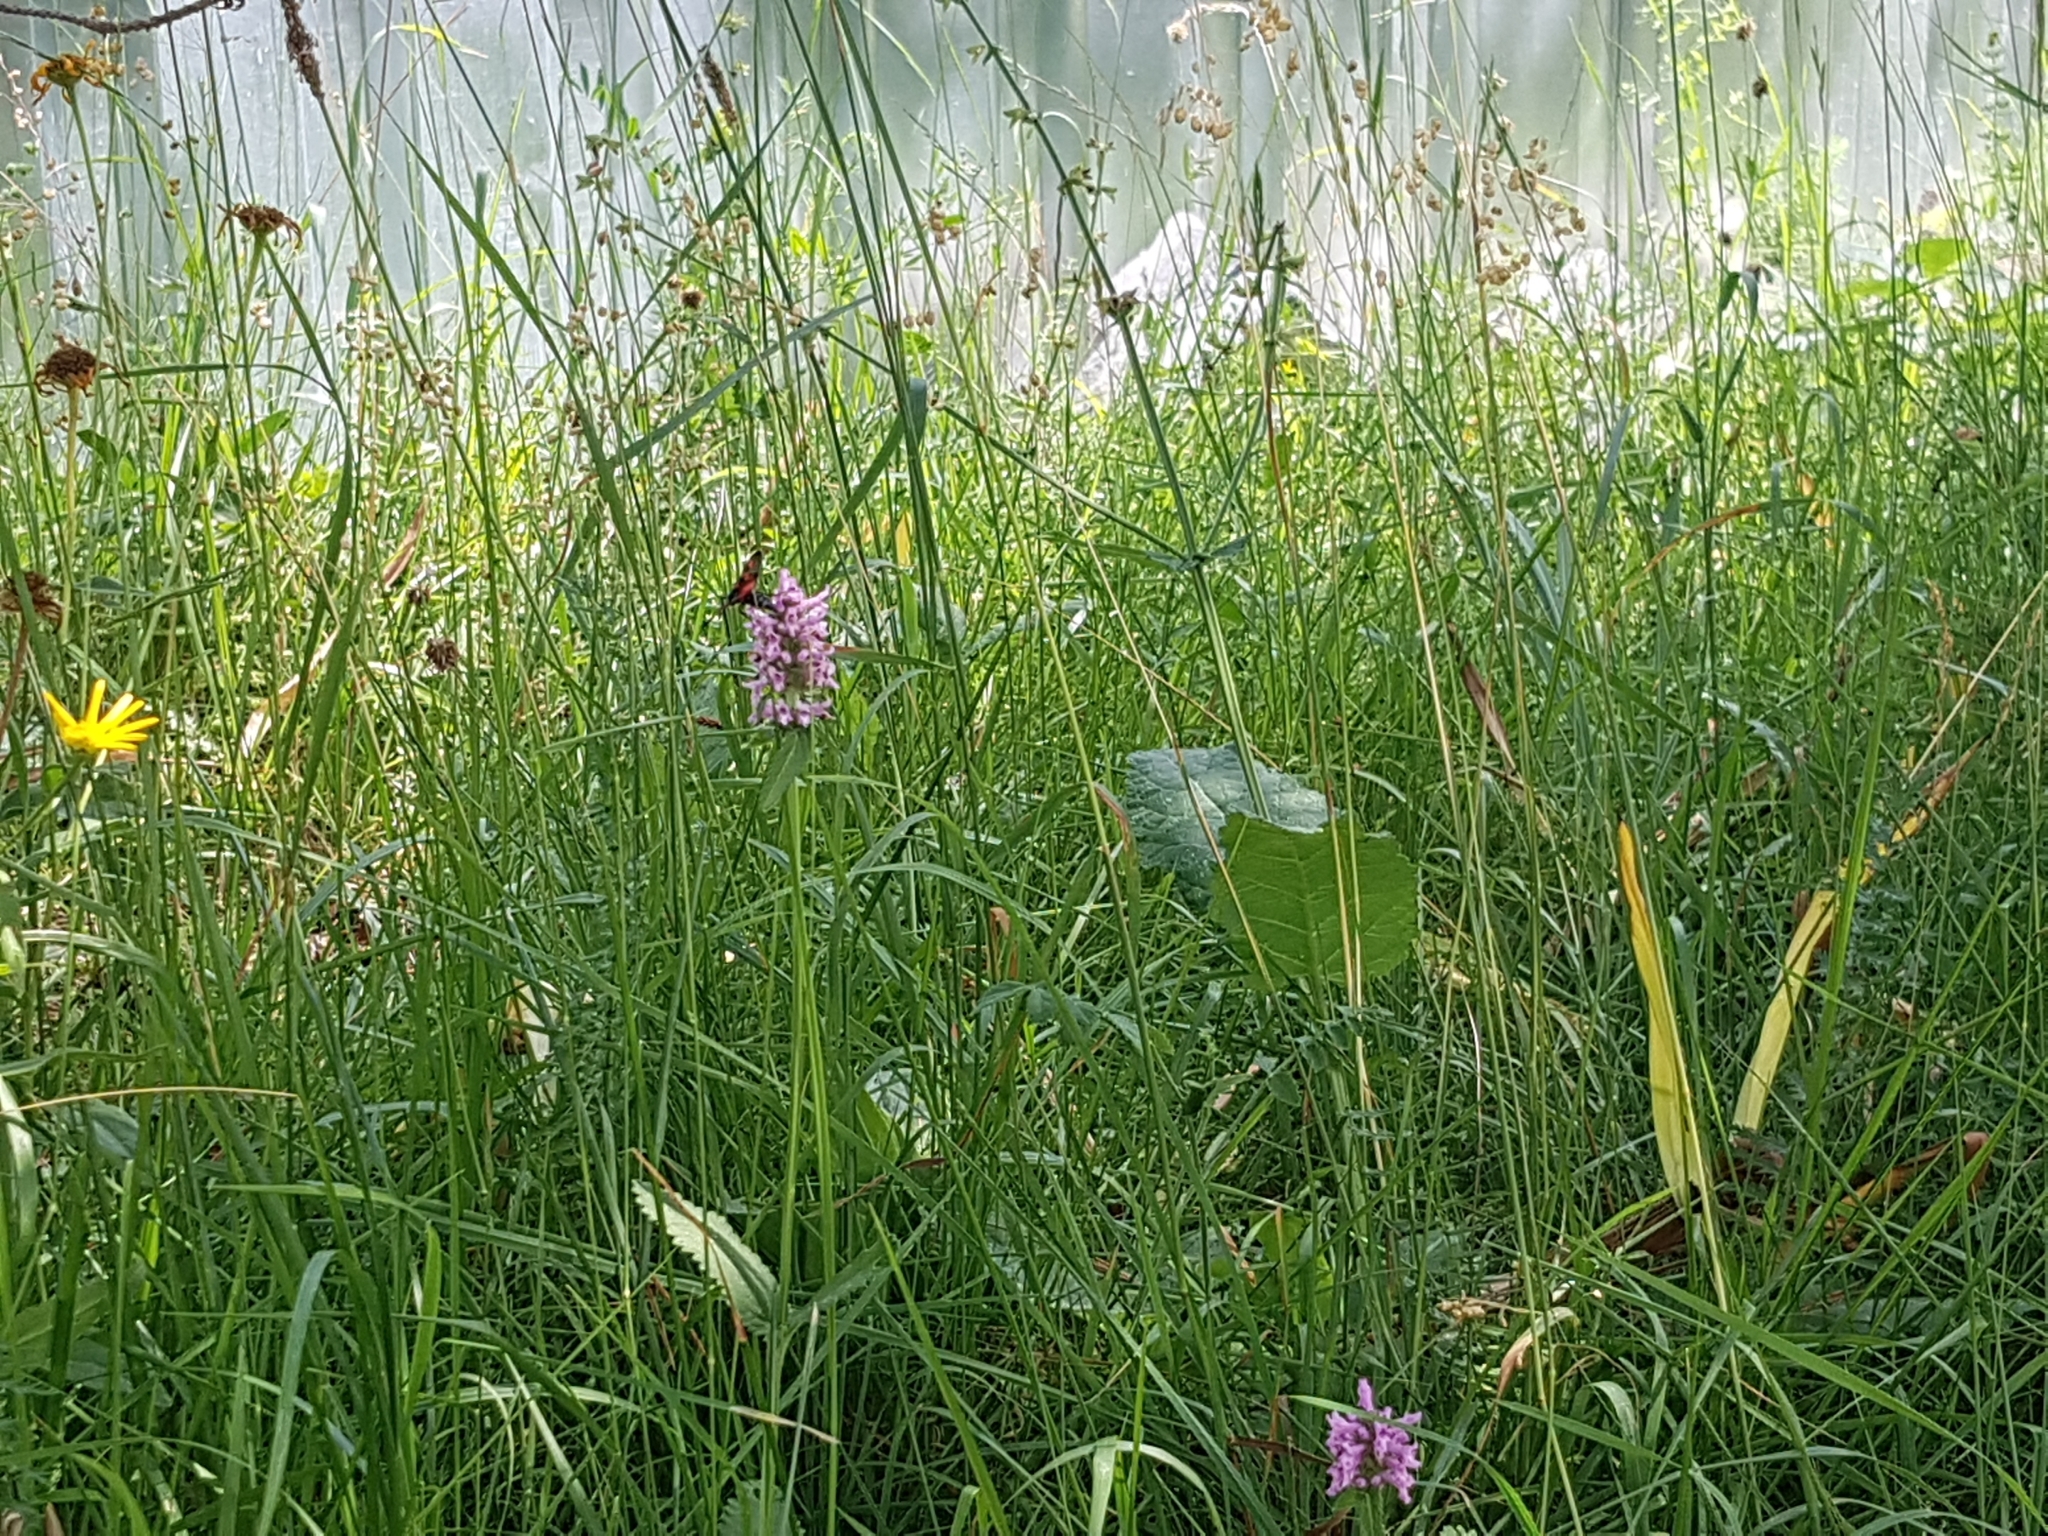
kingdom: Plantae
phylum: Tracheophyta
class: Magnoliopsida
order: Lamiales
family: Lamiaceae
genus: Betonica
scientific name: Betonica officinalis
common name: Bishop's-wort
